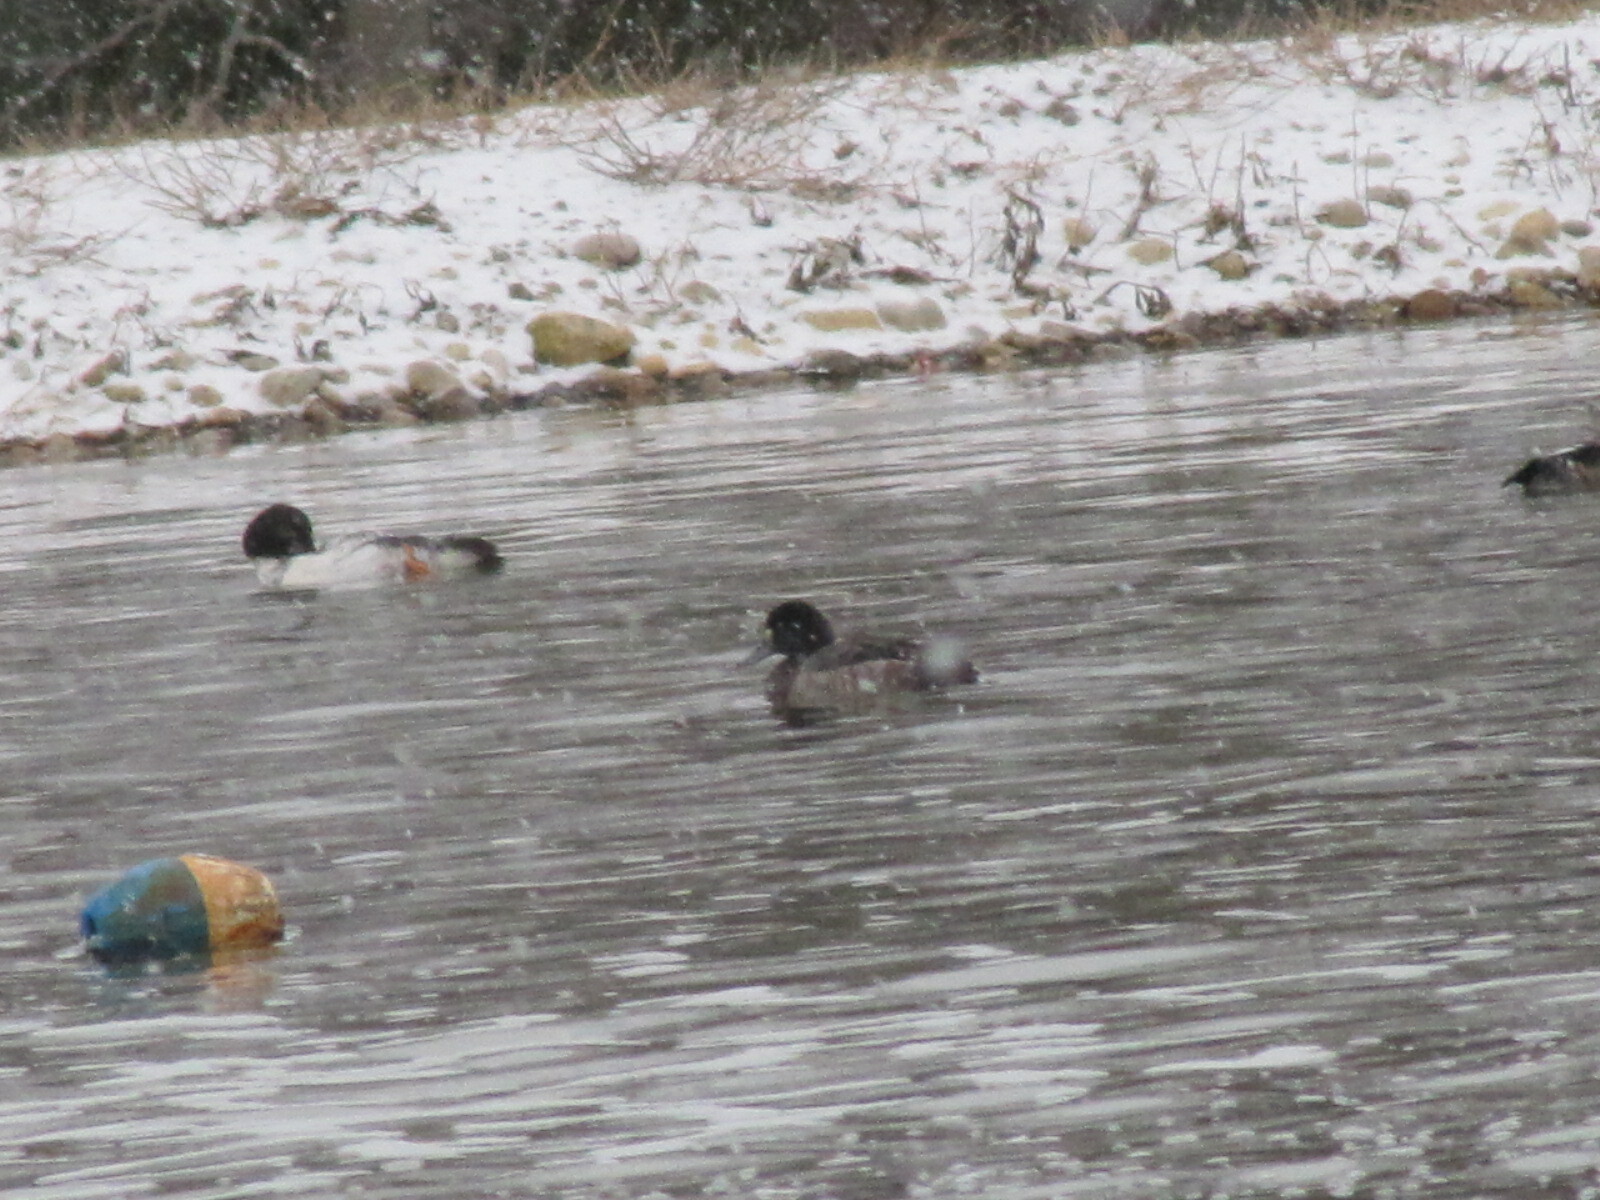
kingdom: Animalia
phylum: Chordata
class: Aves
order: Anseriformes
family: Anatidae
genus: Aythya
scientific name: Aythya marila
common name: Greater scaup
